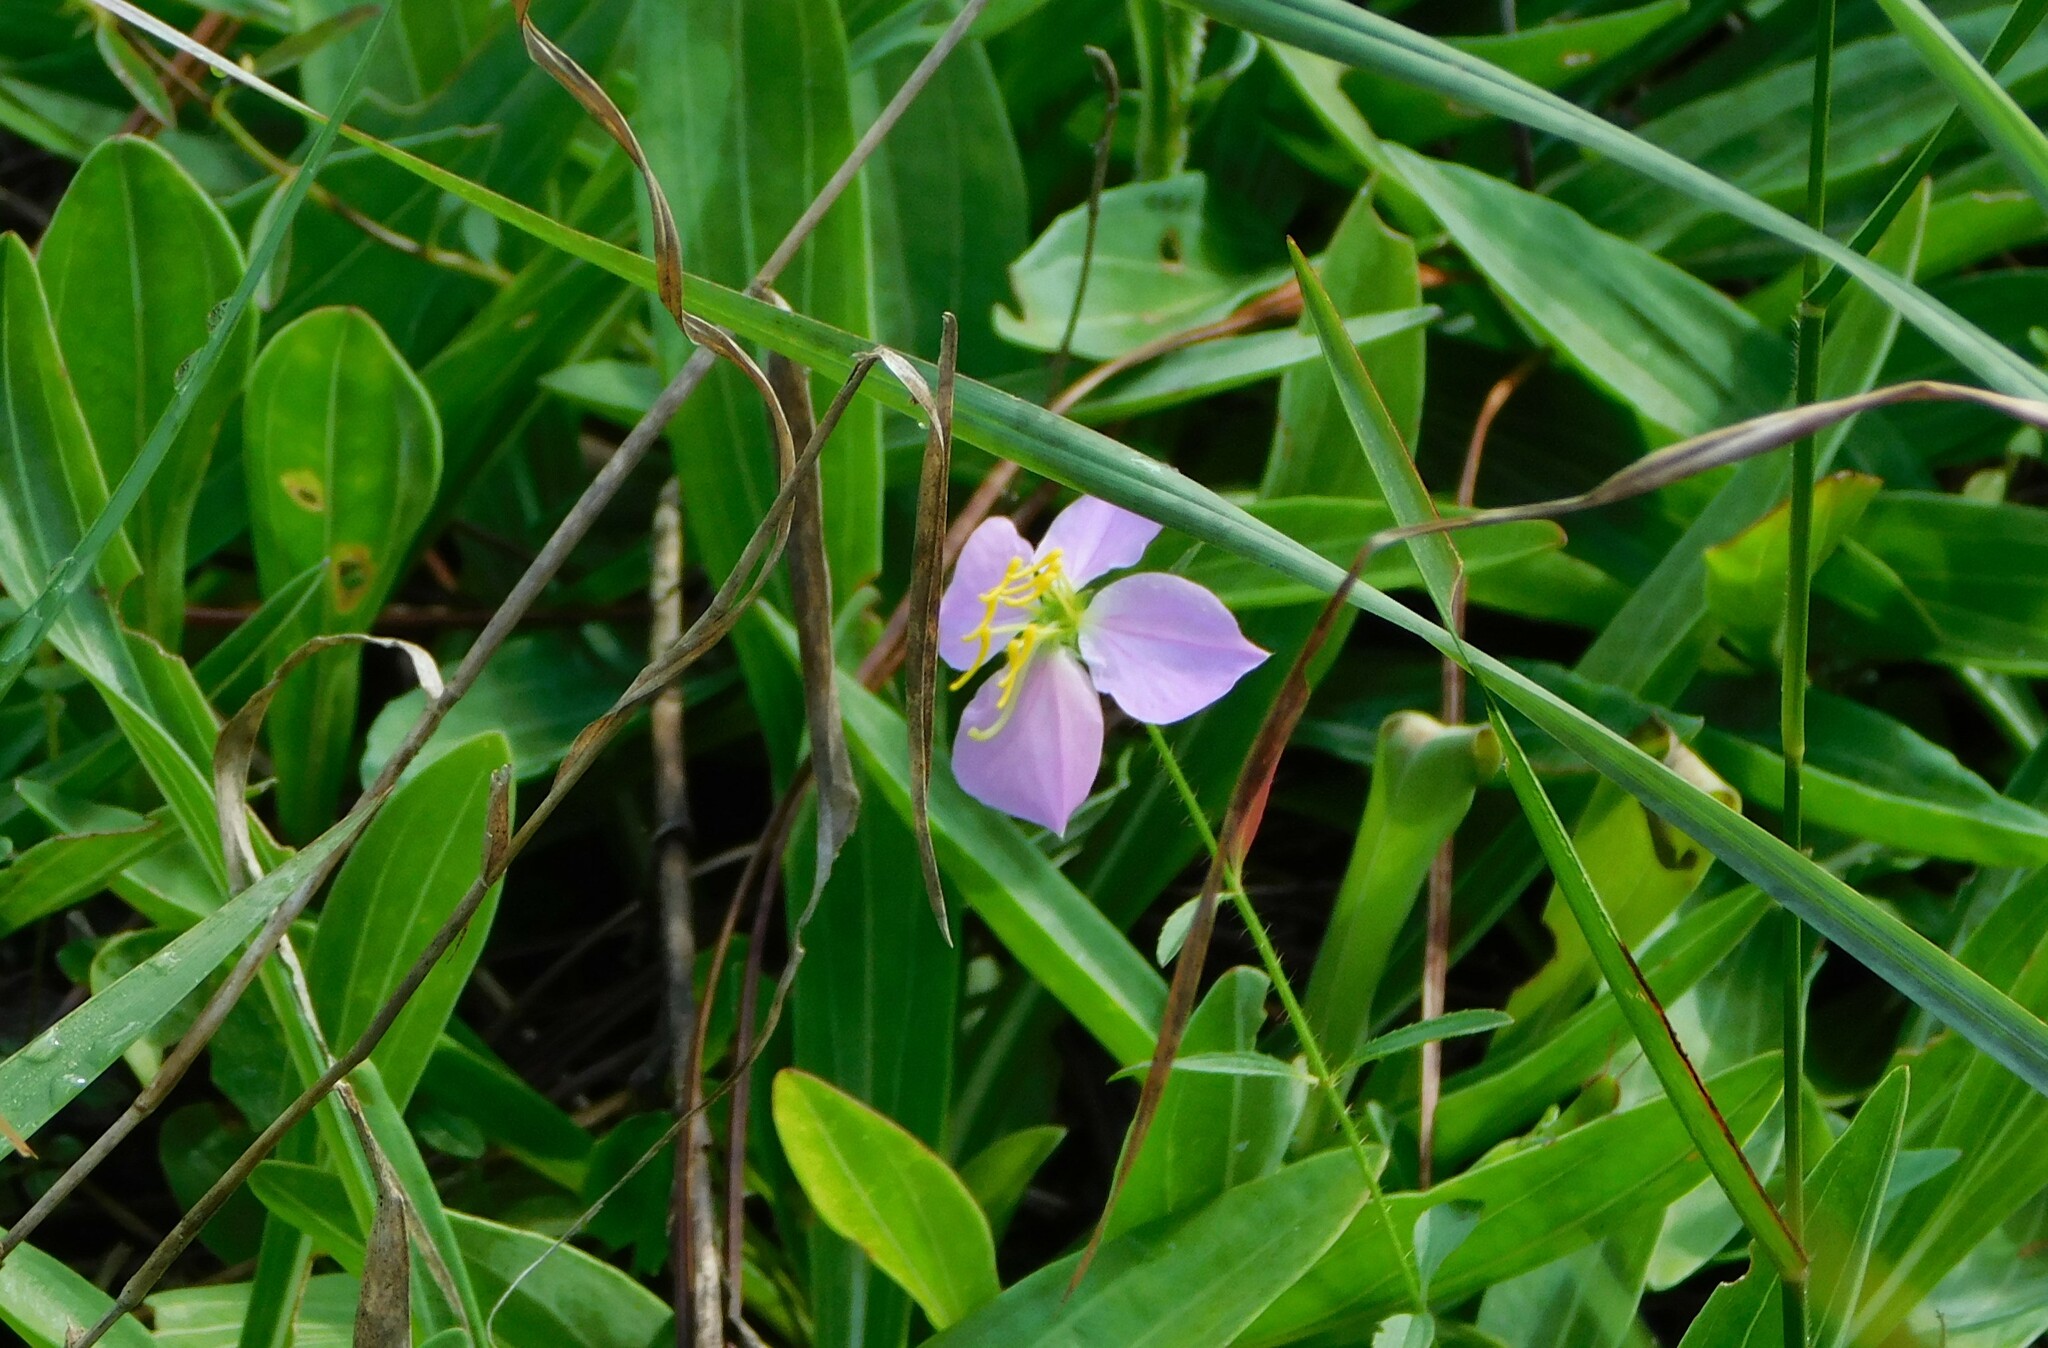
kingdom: Plantae
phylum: Tracheophyta
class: Magnoliopsida
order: Myrtales
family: Melastomataceae
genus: Rhexia
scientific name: Rhexia mariana
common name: Dull meadow-pitcher
